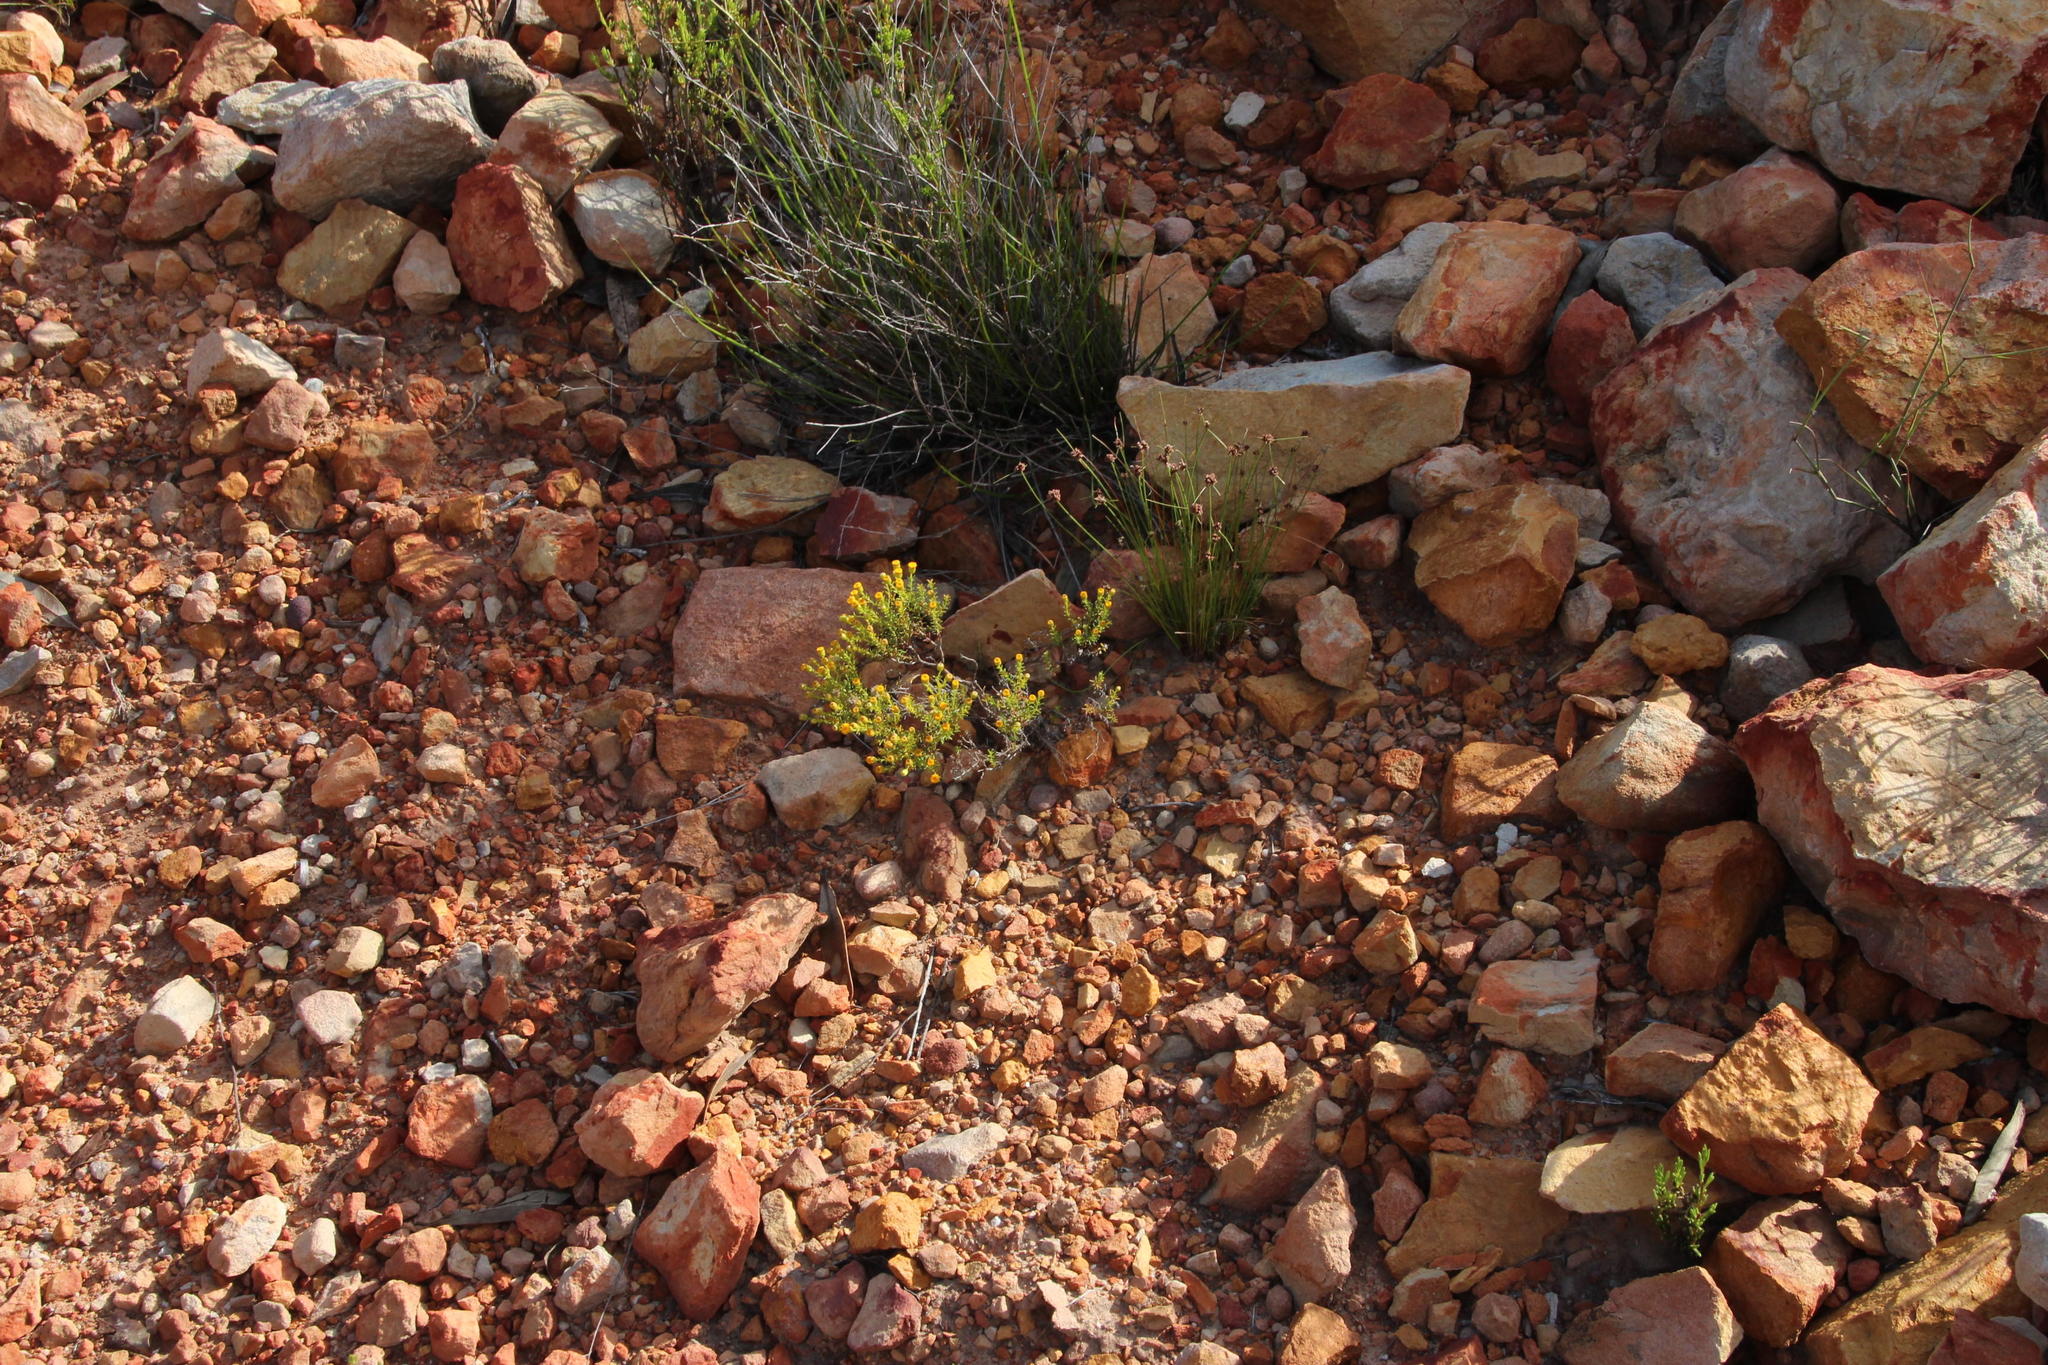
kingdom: Plantae
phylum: Tracheophyta
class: Magnoliopsida
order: Asterales
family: Asteraceae
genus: Chrysocoma
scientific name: Chrysocoma ciliata
